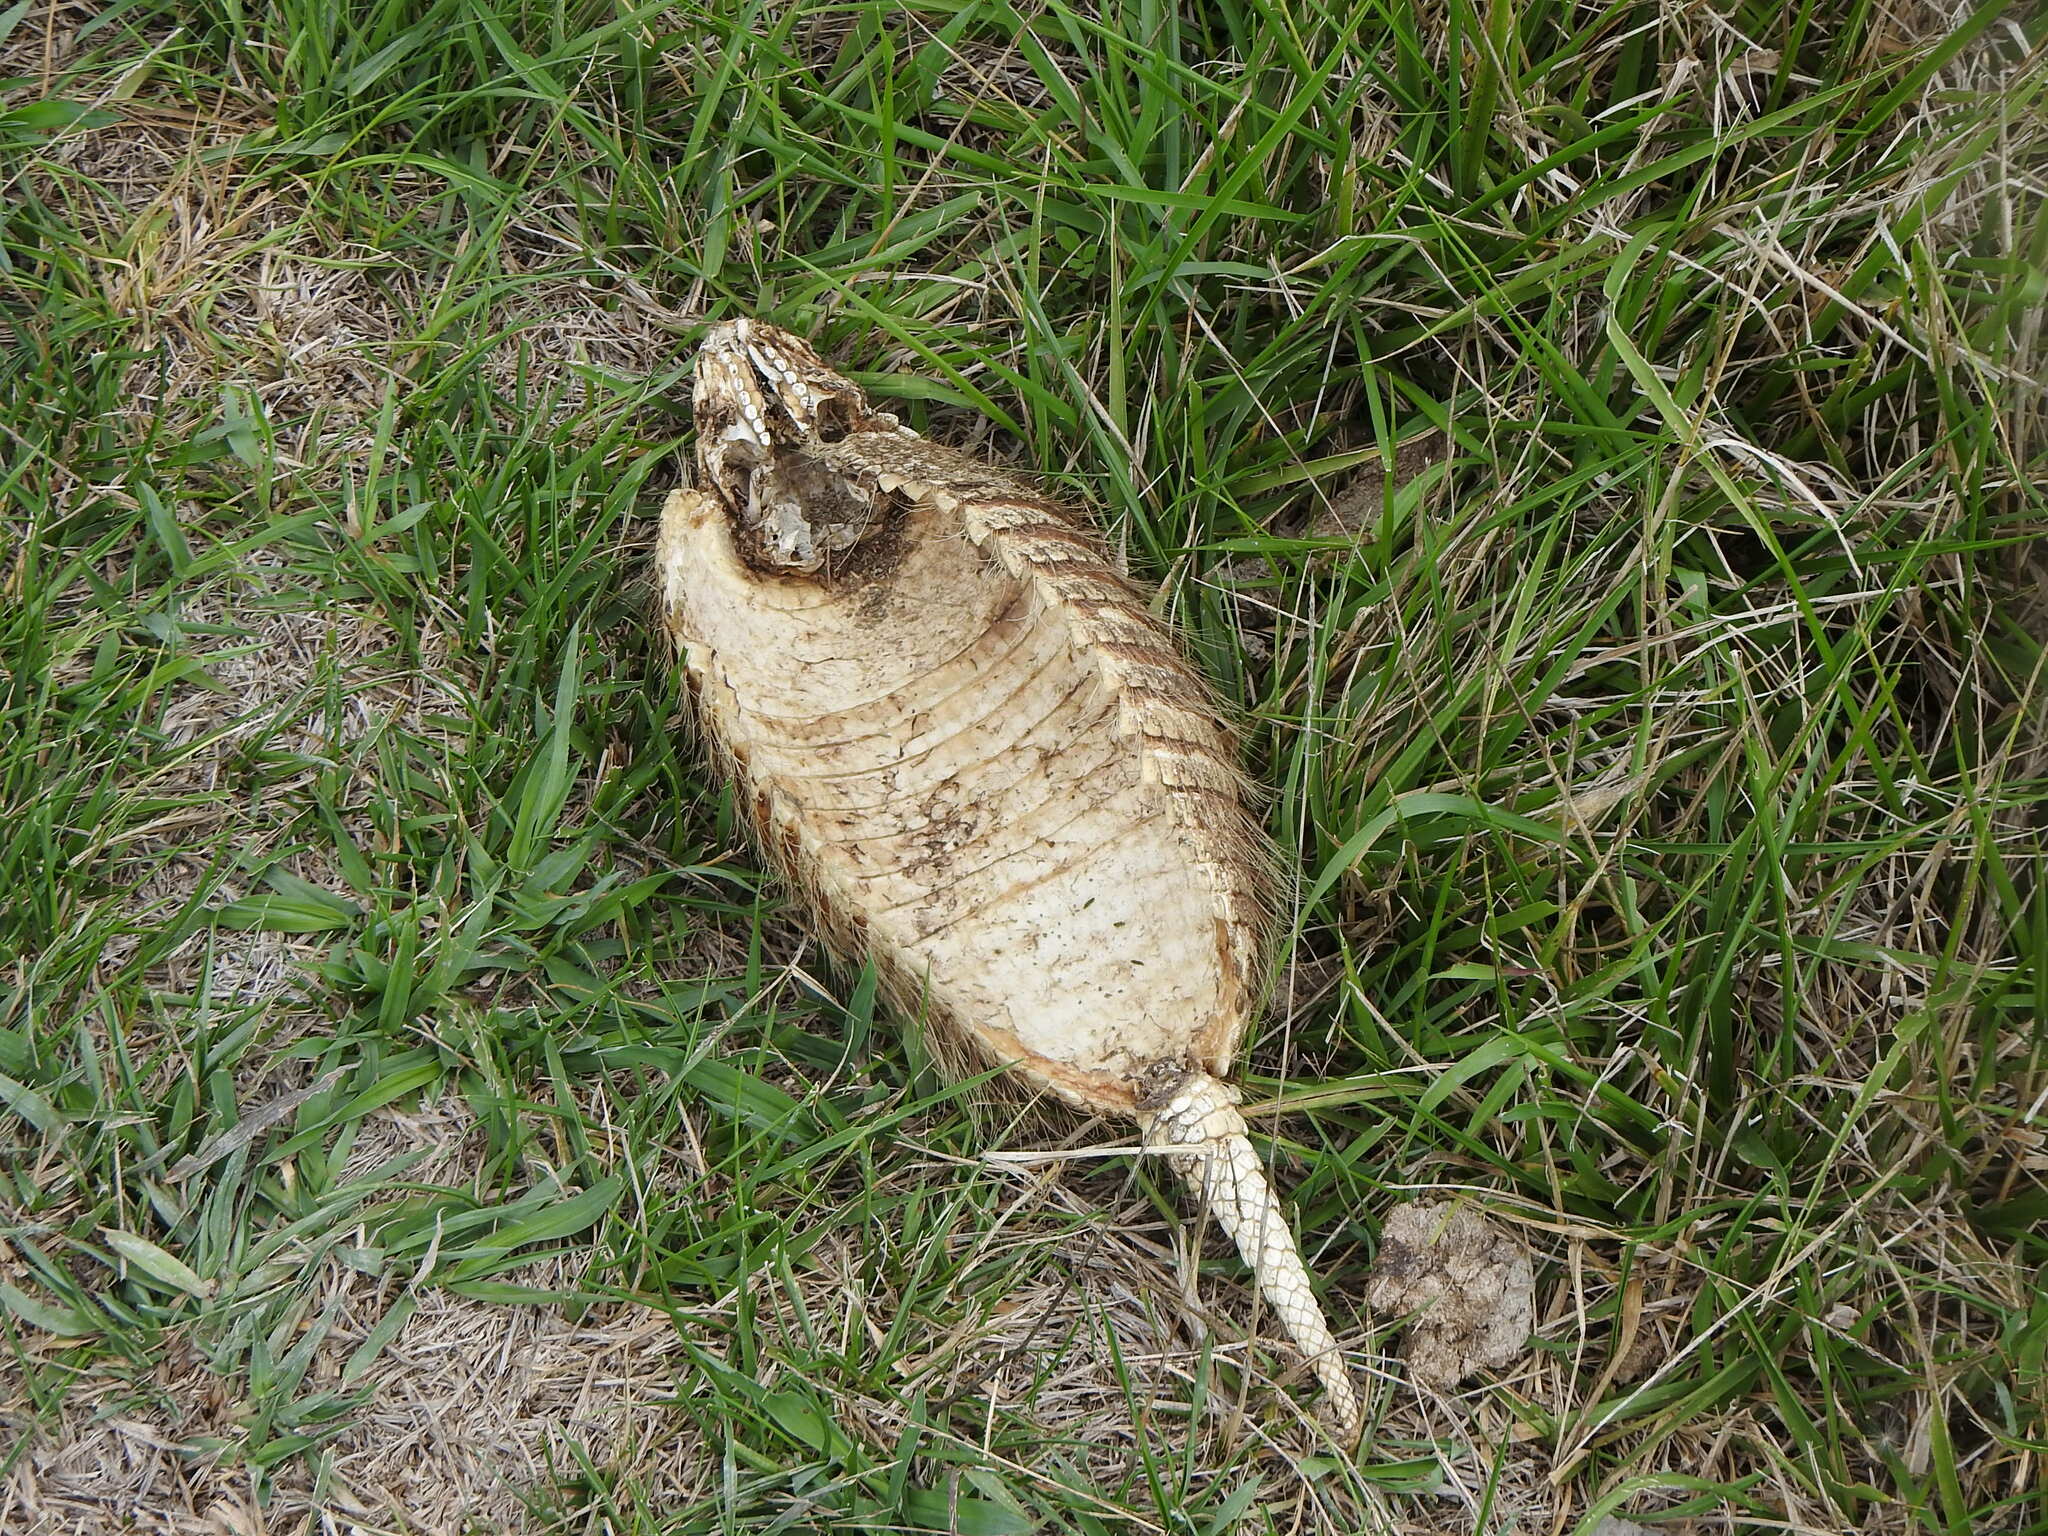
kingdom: Animalia
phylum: Chordata
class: Mammalia
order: Cingulata
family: Dasypodidae
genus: Chaetophractus
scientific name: Chaetophractus villosus
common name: Big hairy armadillo
